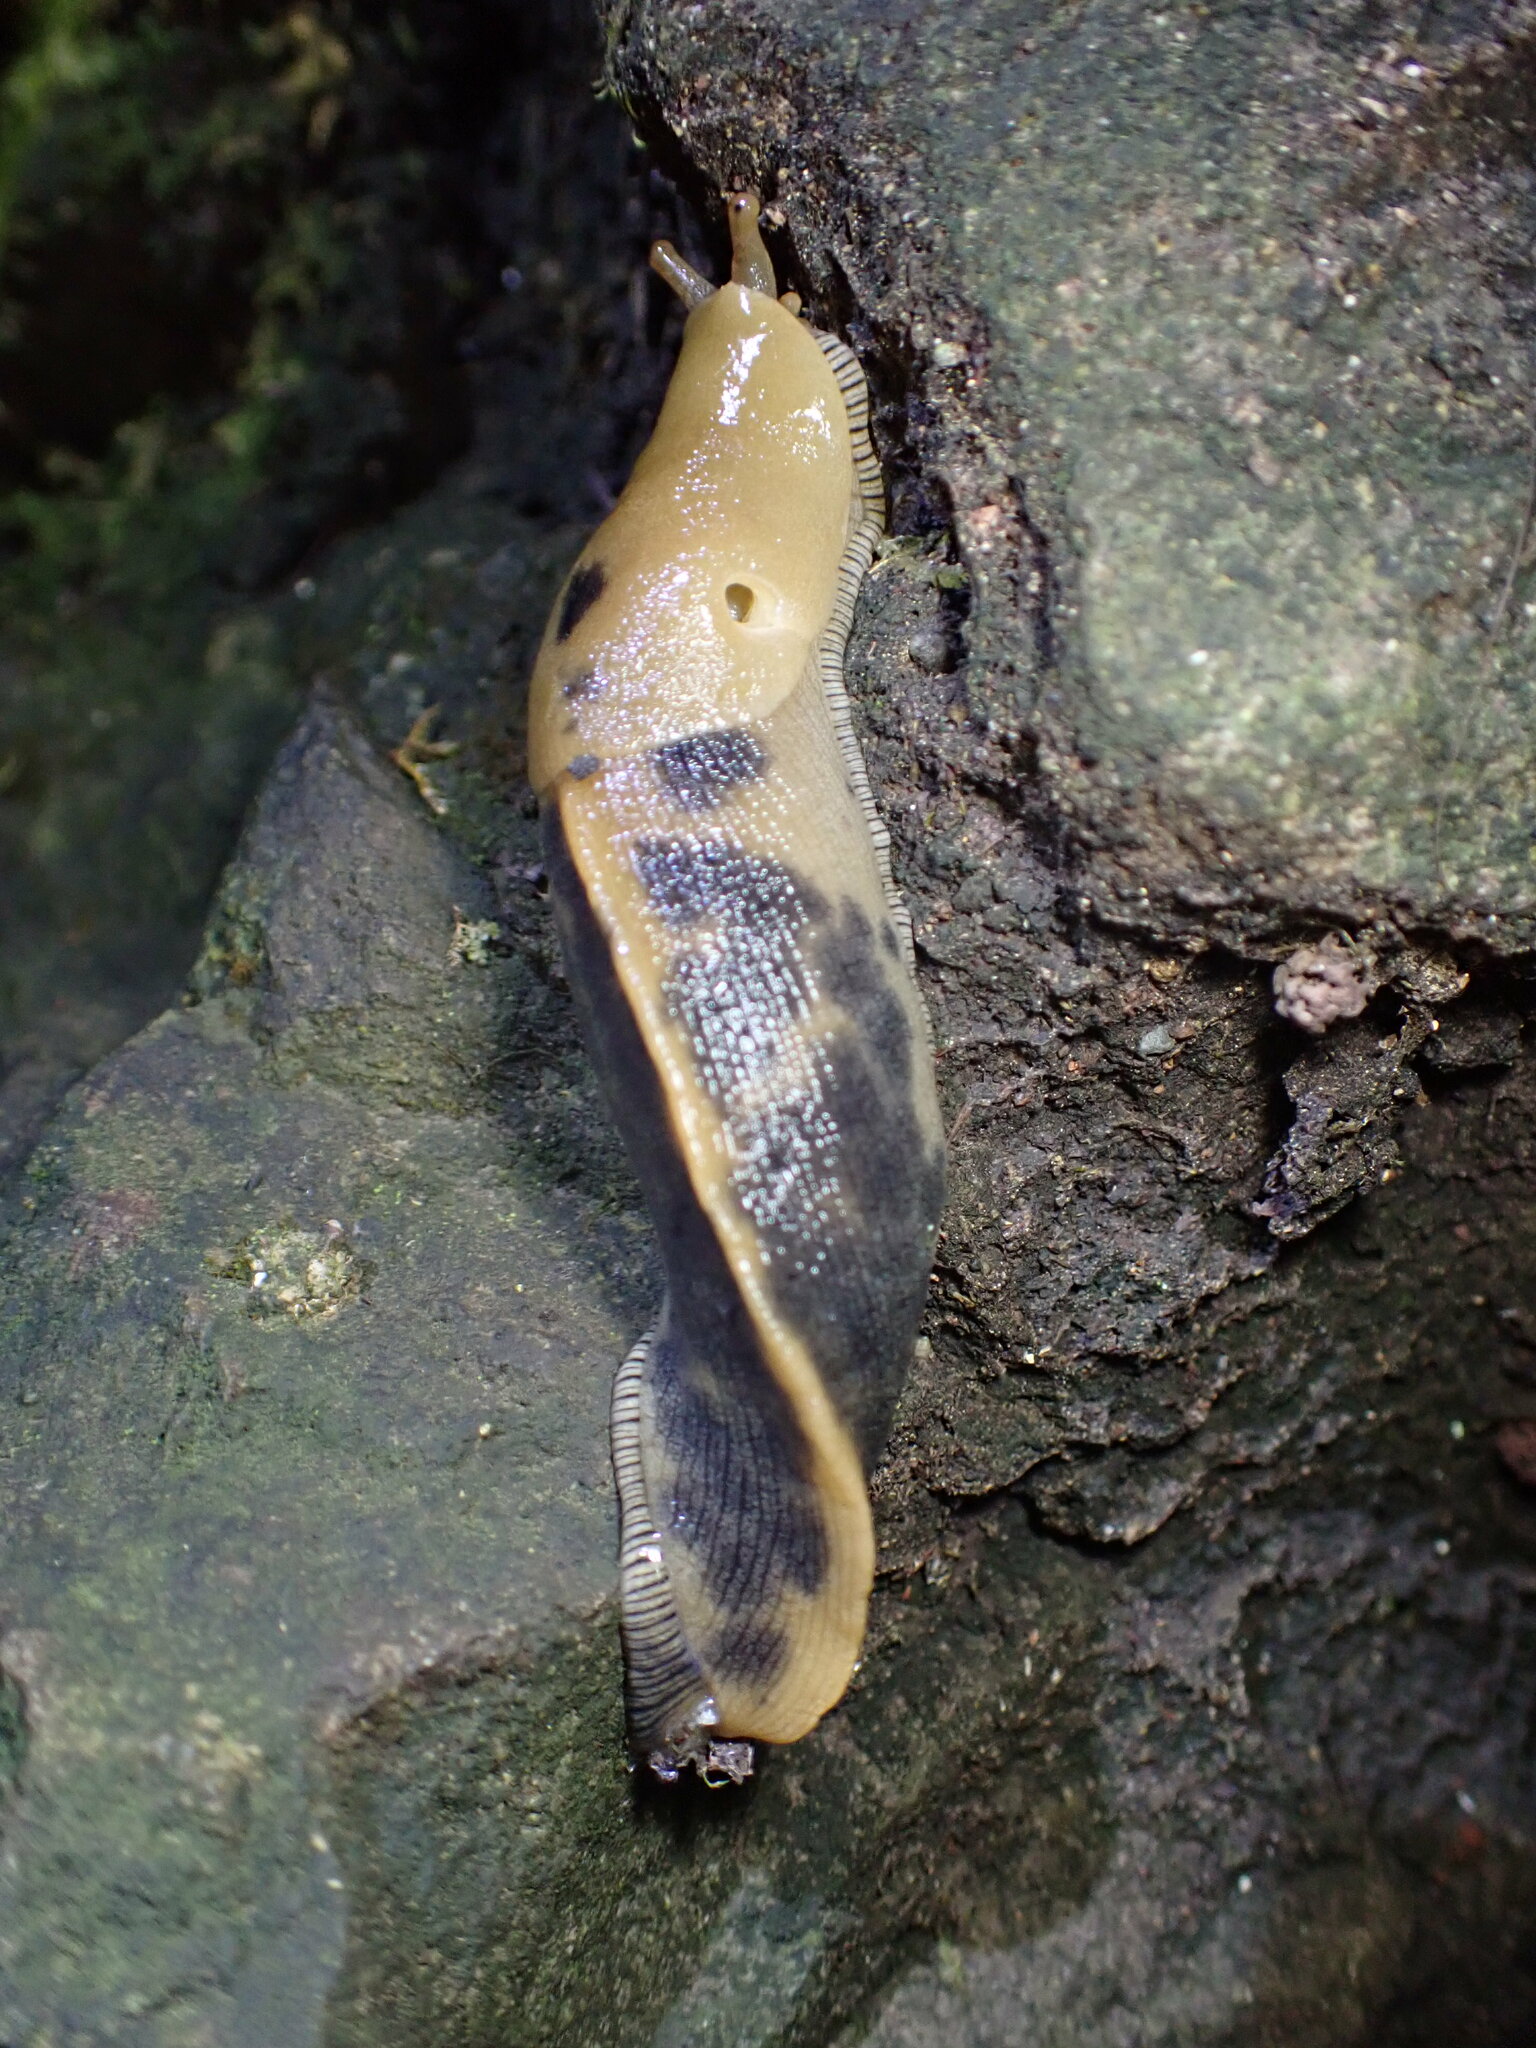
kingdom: Animalia
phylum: Mollusca
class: Gastropoda
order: Stylommatophora
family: Ariolimacidae
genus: Ariolimax
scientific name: Ariolimax buttoni
